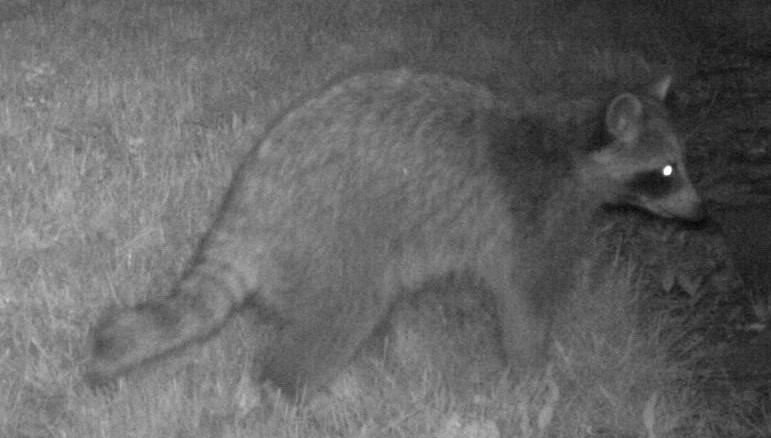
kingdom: Animalia
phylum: Chordata
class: Mammalia
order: Carnivora
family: Procyonidae
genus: Procyon
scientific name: Procyon lotor
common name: Raccoon
